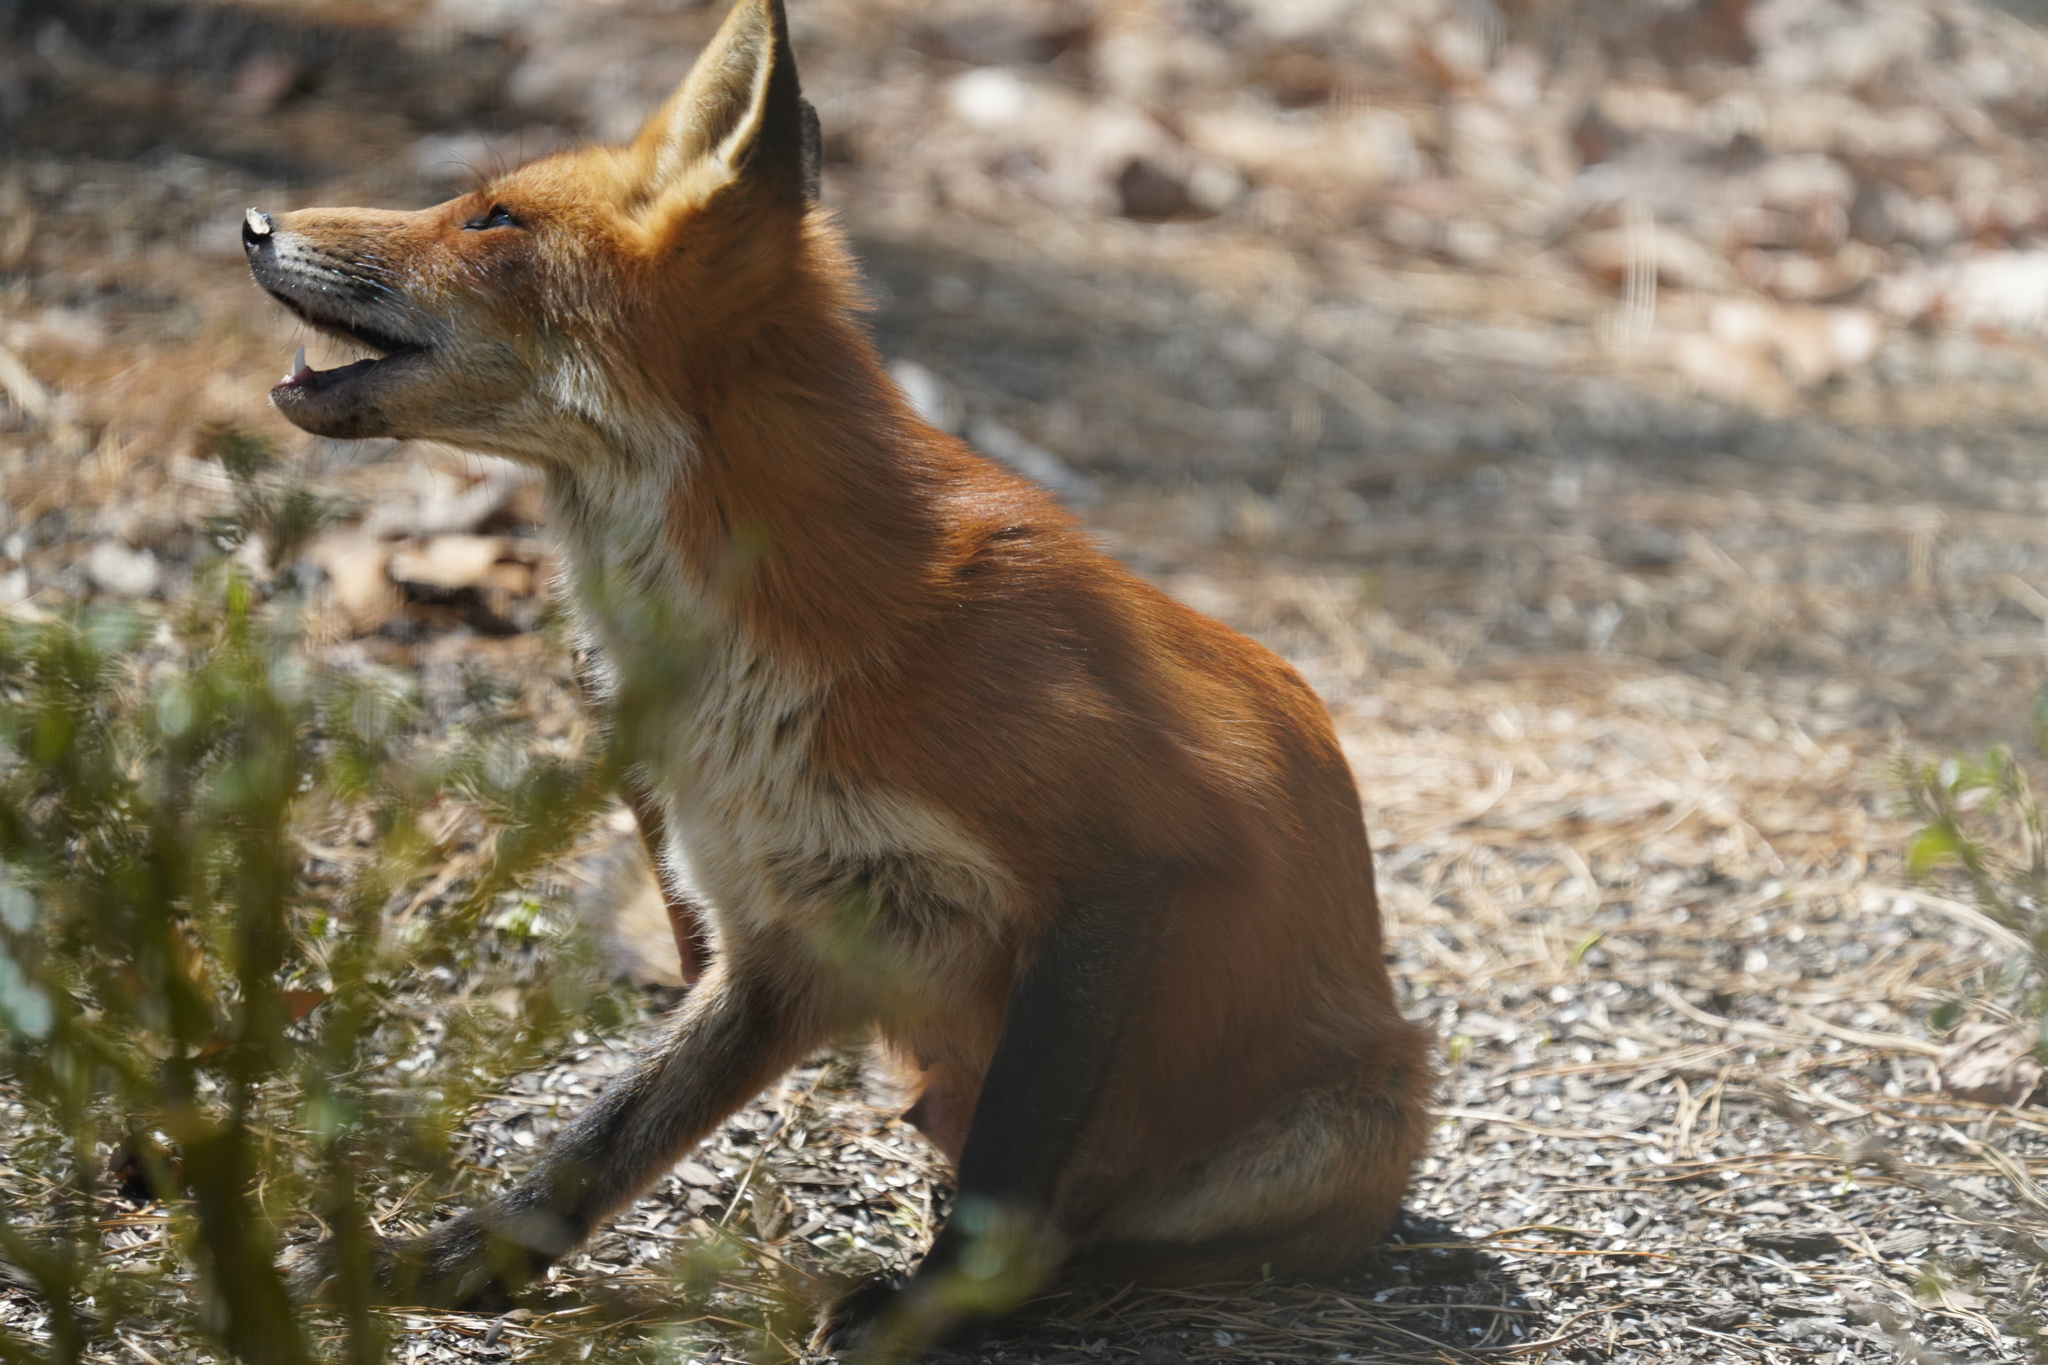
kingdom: Animalia
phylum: Chordata
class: Mammalia
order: Carnivora
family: Canidae
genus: Vulpes
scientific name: Vulpes vulpes
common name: Red fox
